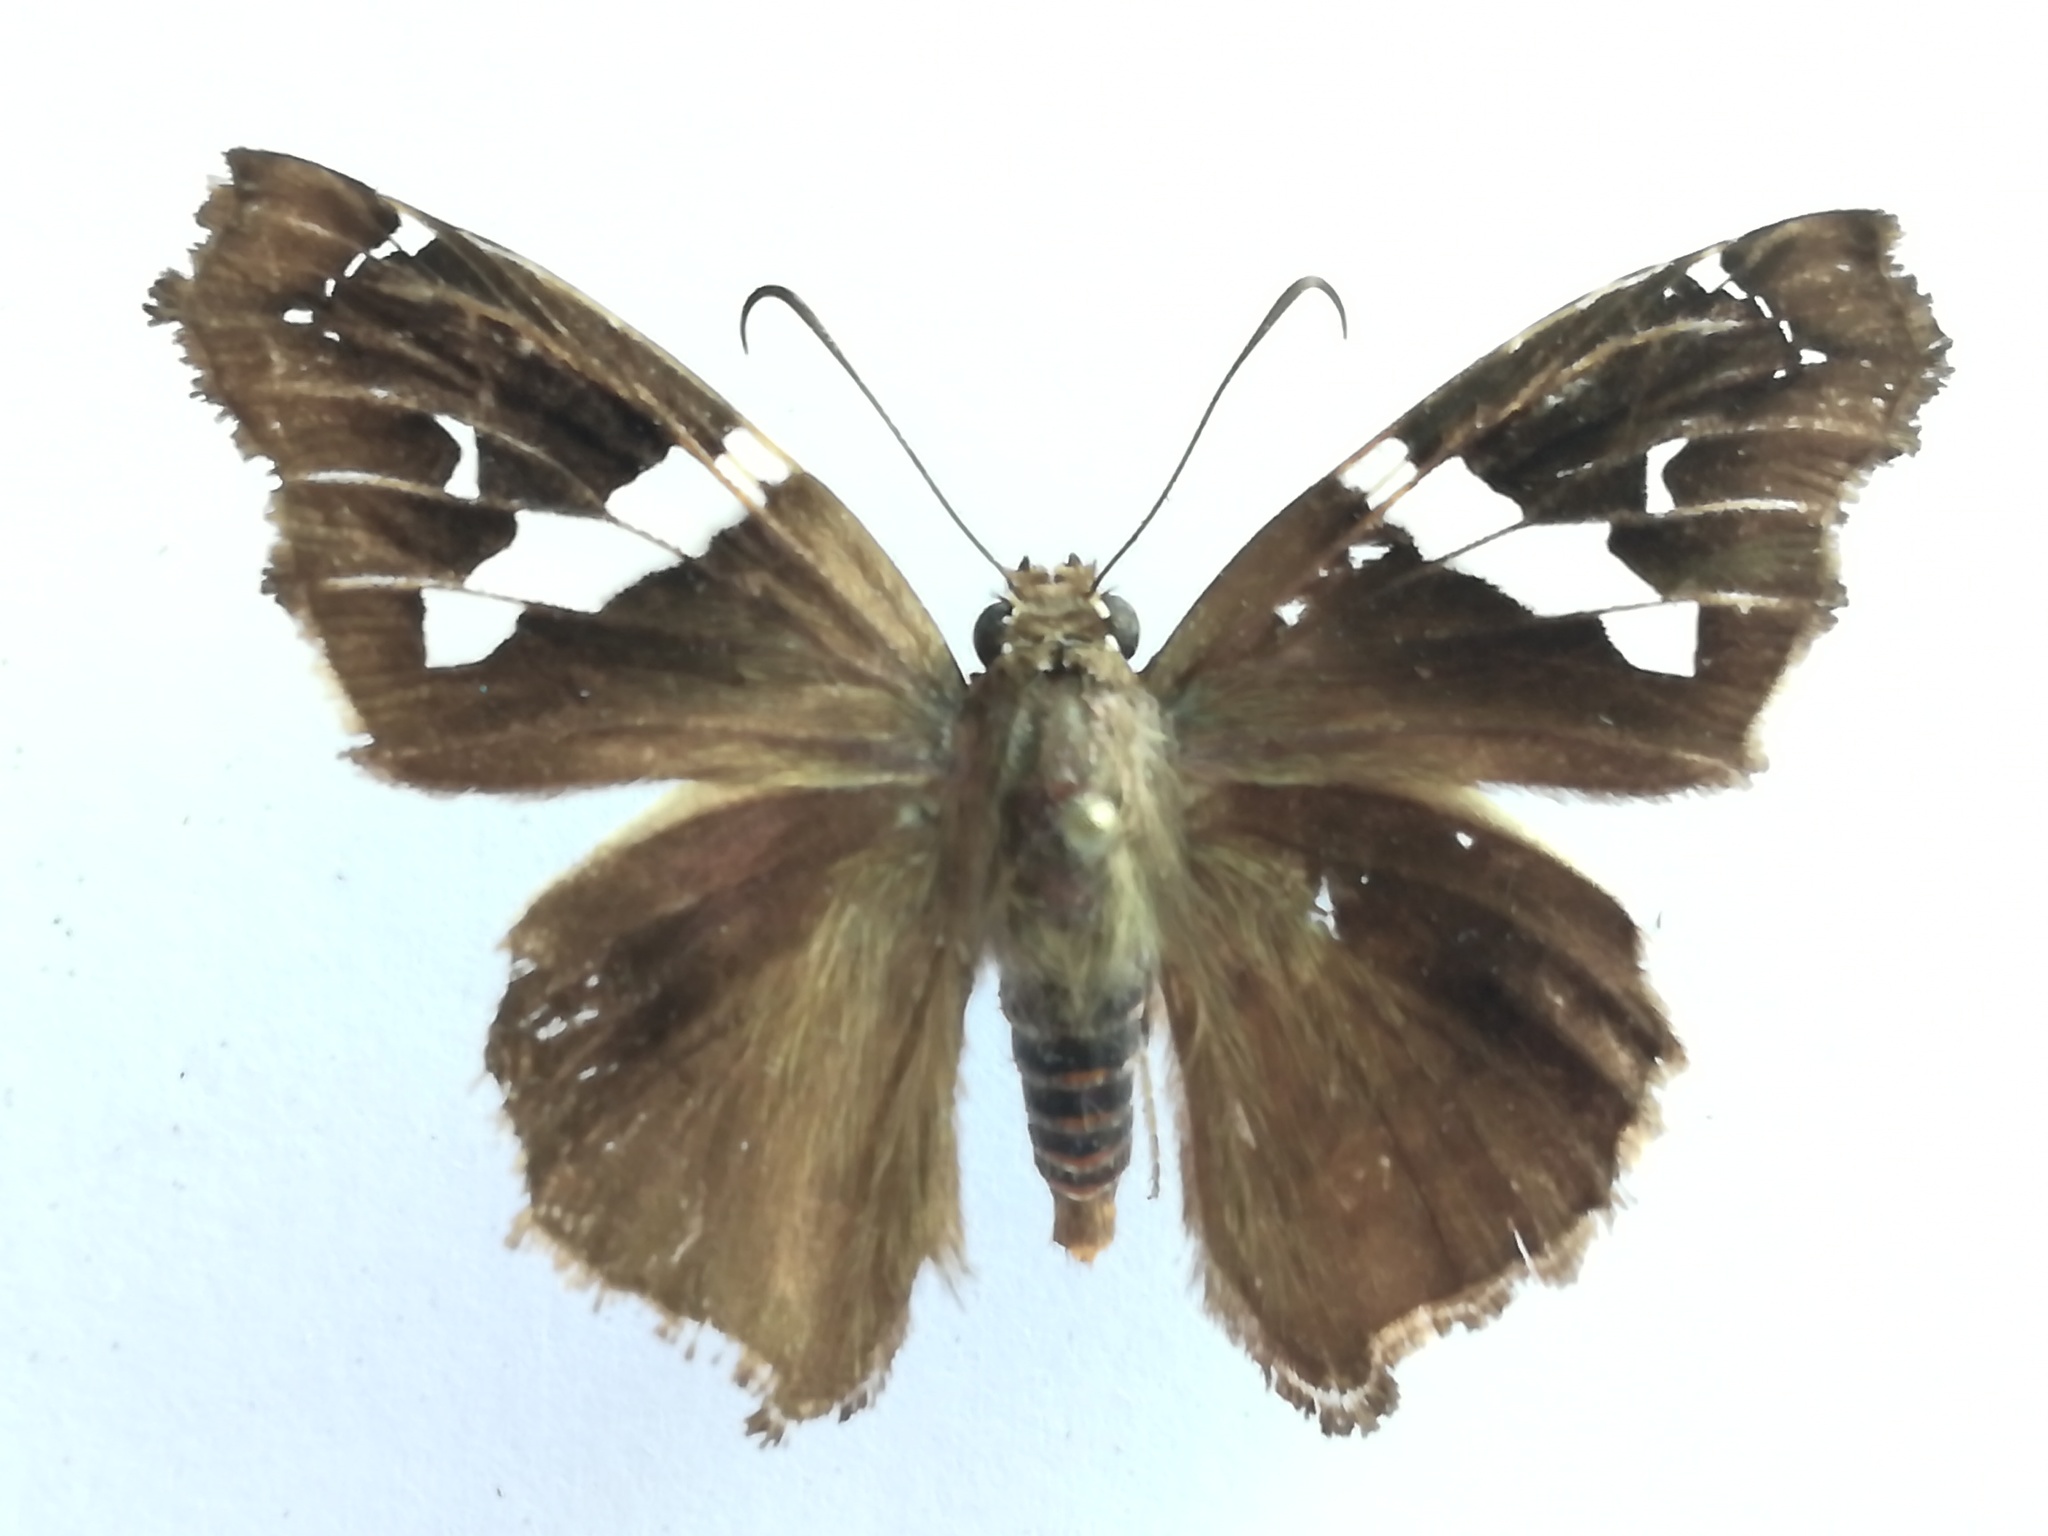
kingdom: Animalia
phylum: Arthropoda
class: Insecta
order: Lepidoptera
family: Hesperiidae
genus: Spathilepia
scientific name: Spathilepia clonius
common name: Falcate skipper
